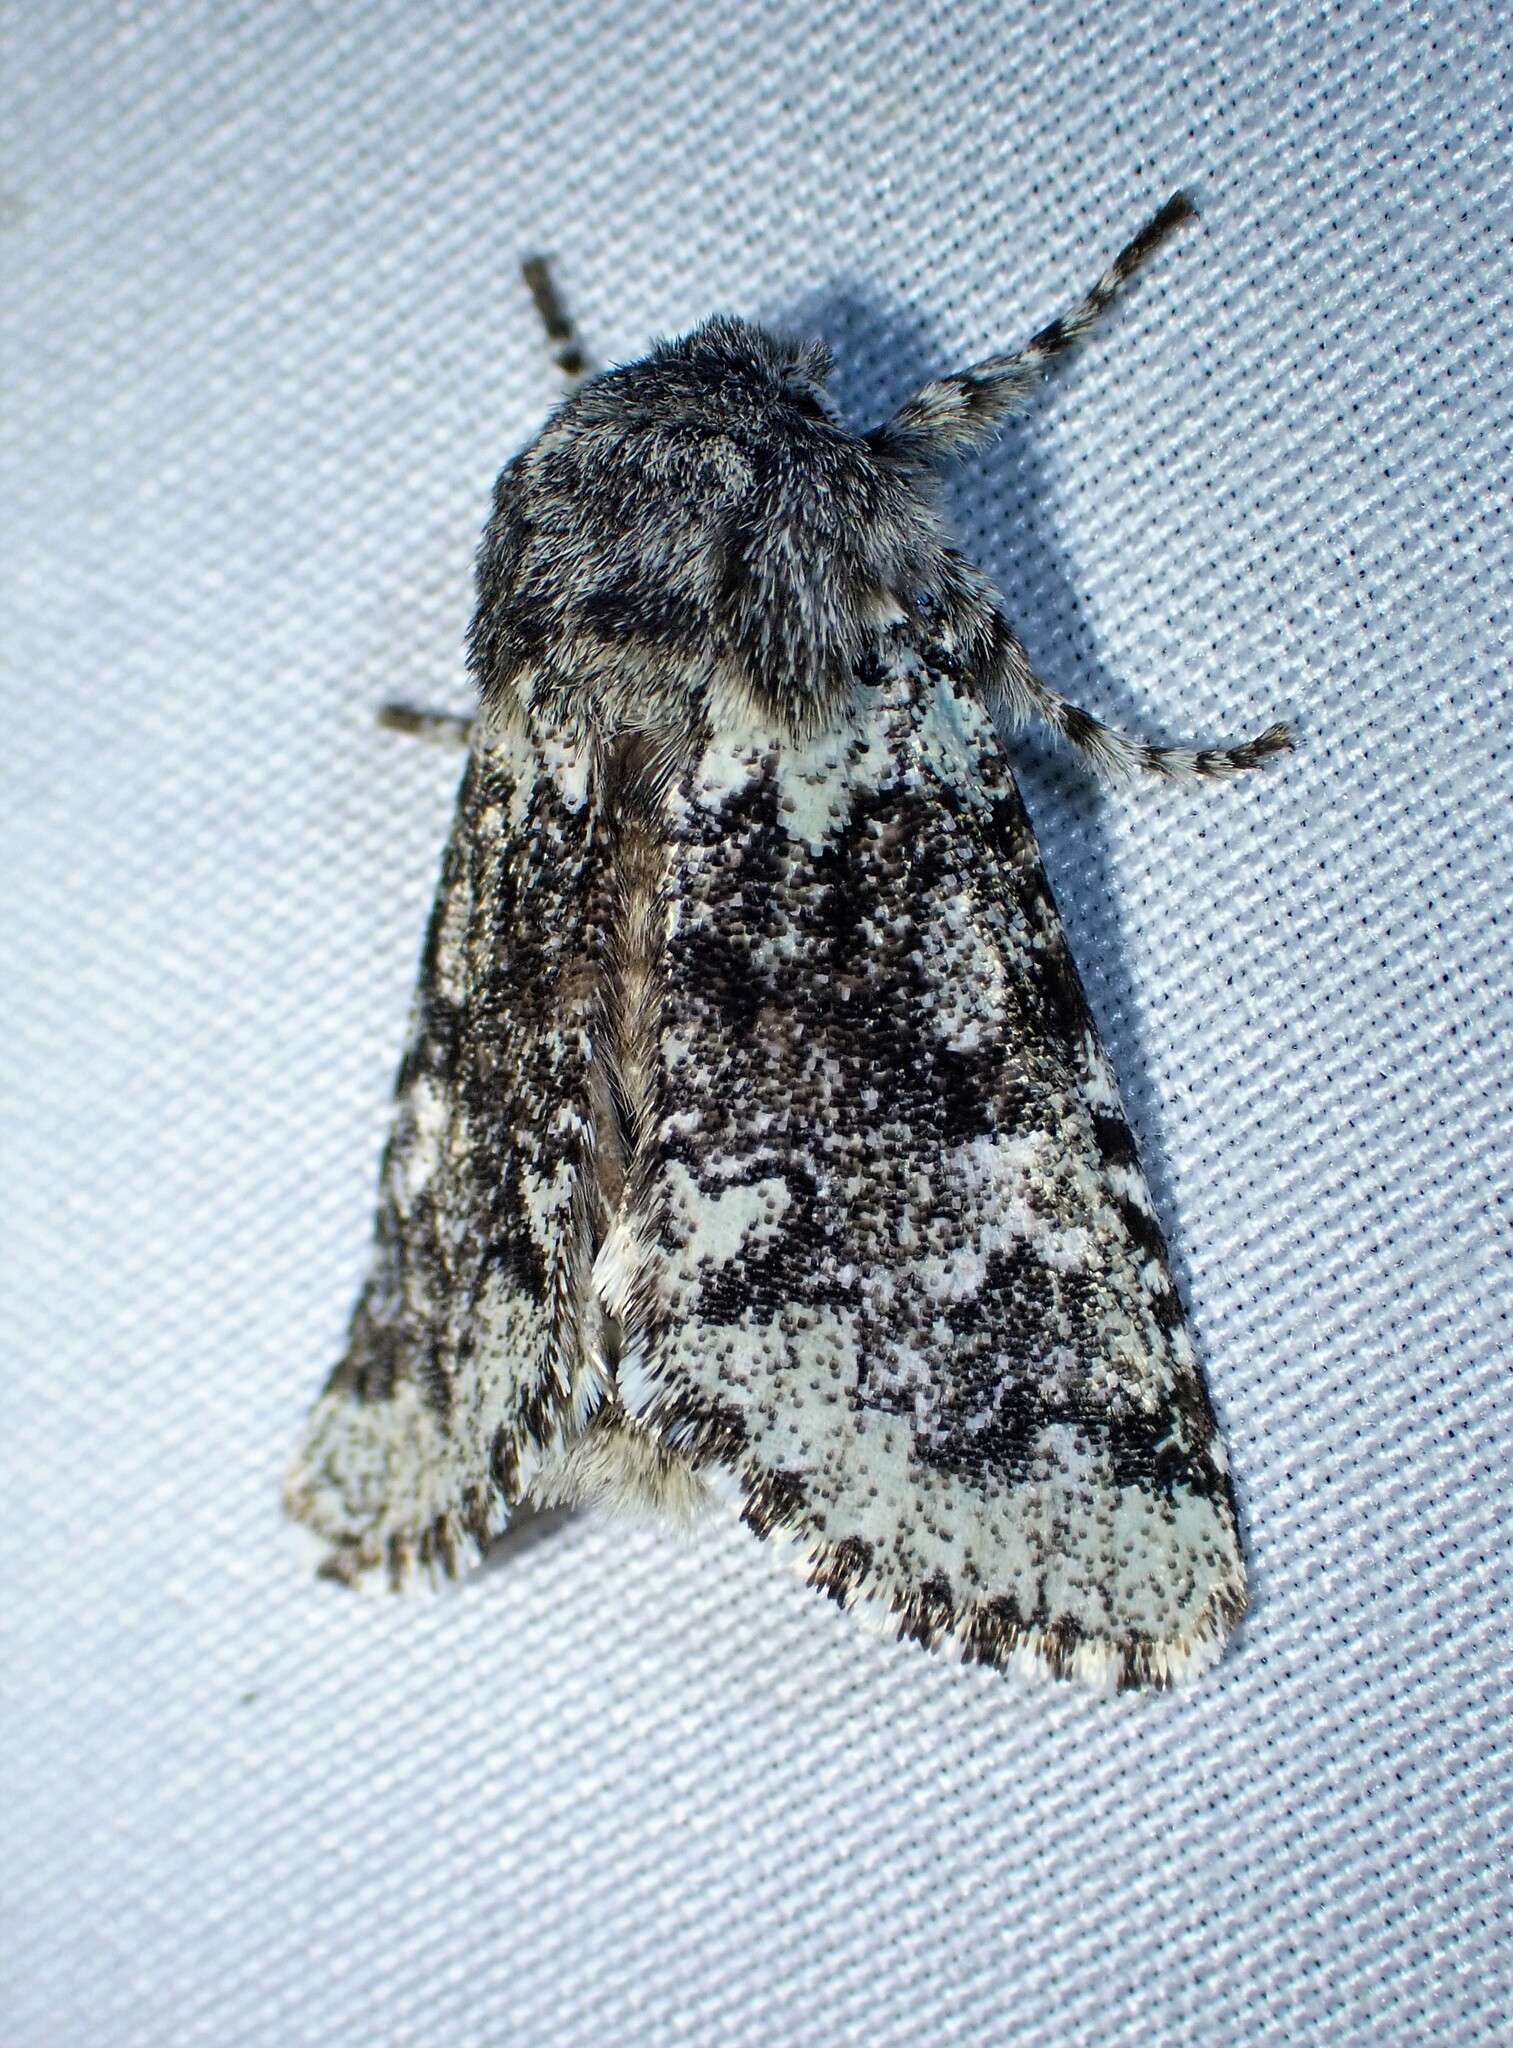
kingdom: Animalia
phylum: Arthropoda
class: Insecta
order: Lepidoptera
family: Noctuidae
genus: Feralia
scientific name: Feralia major
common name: Major sallow
